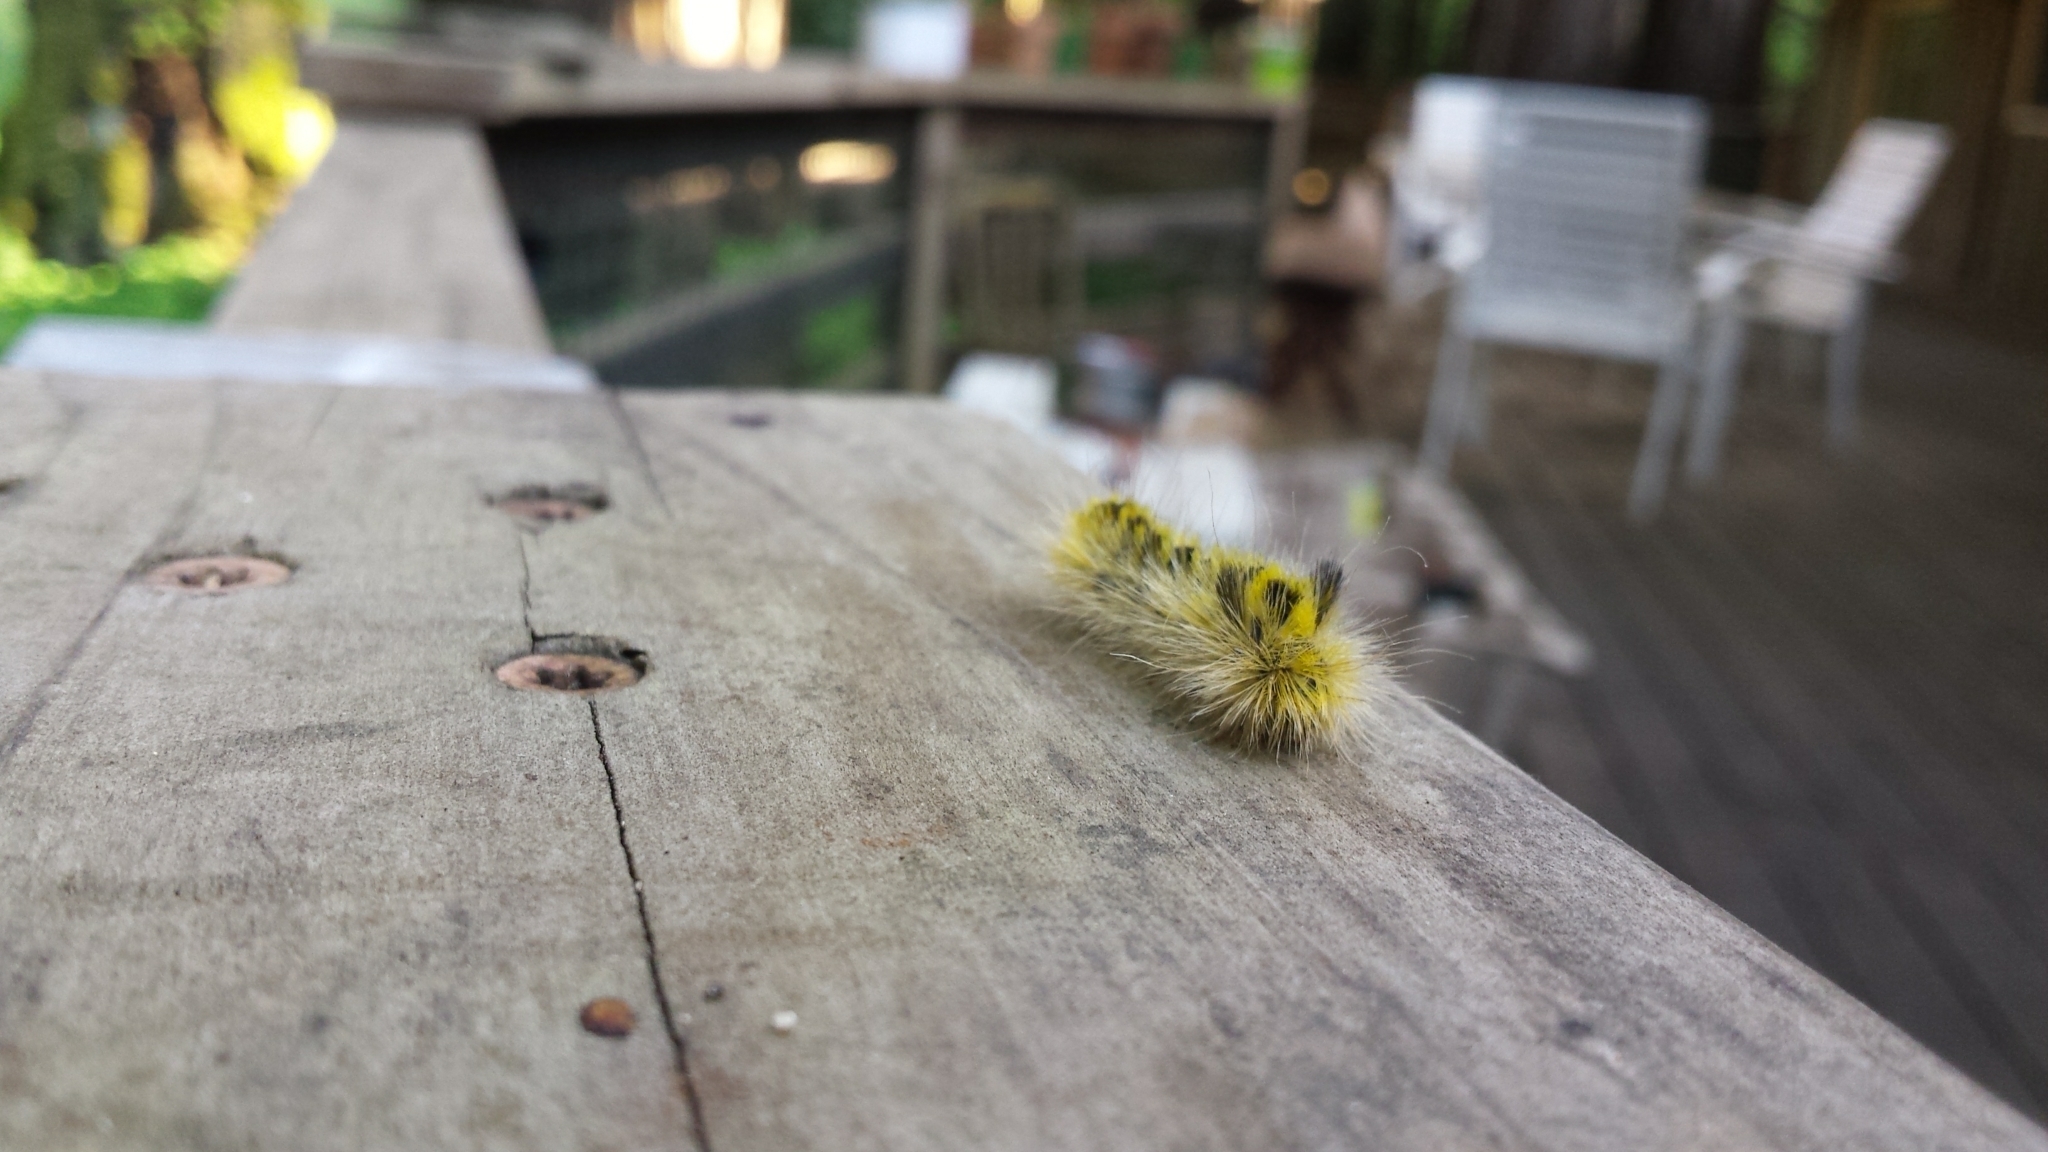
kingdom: Animalia
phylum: Arthropoda
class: Insecta
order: Lepidoptera
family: Erebidae
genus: Lophocampa
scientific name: Lophocampa argentata
